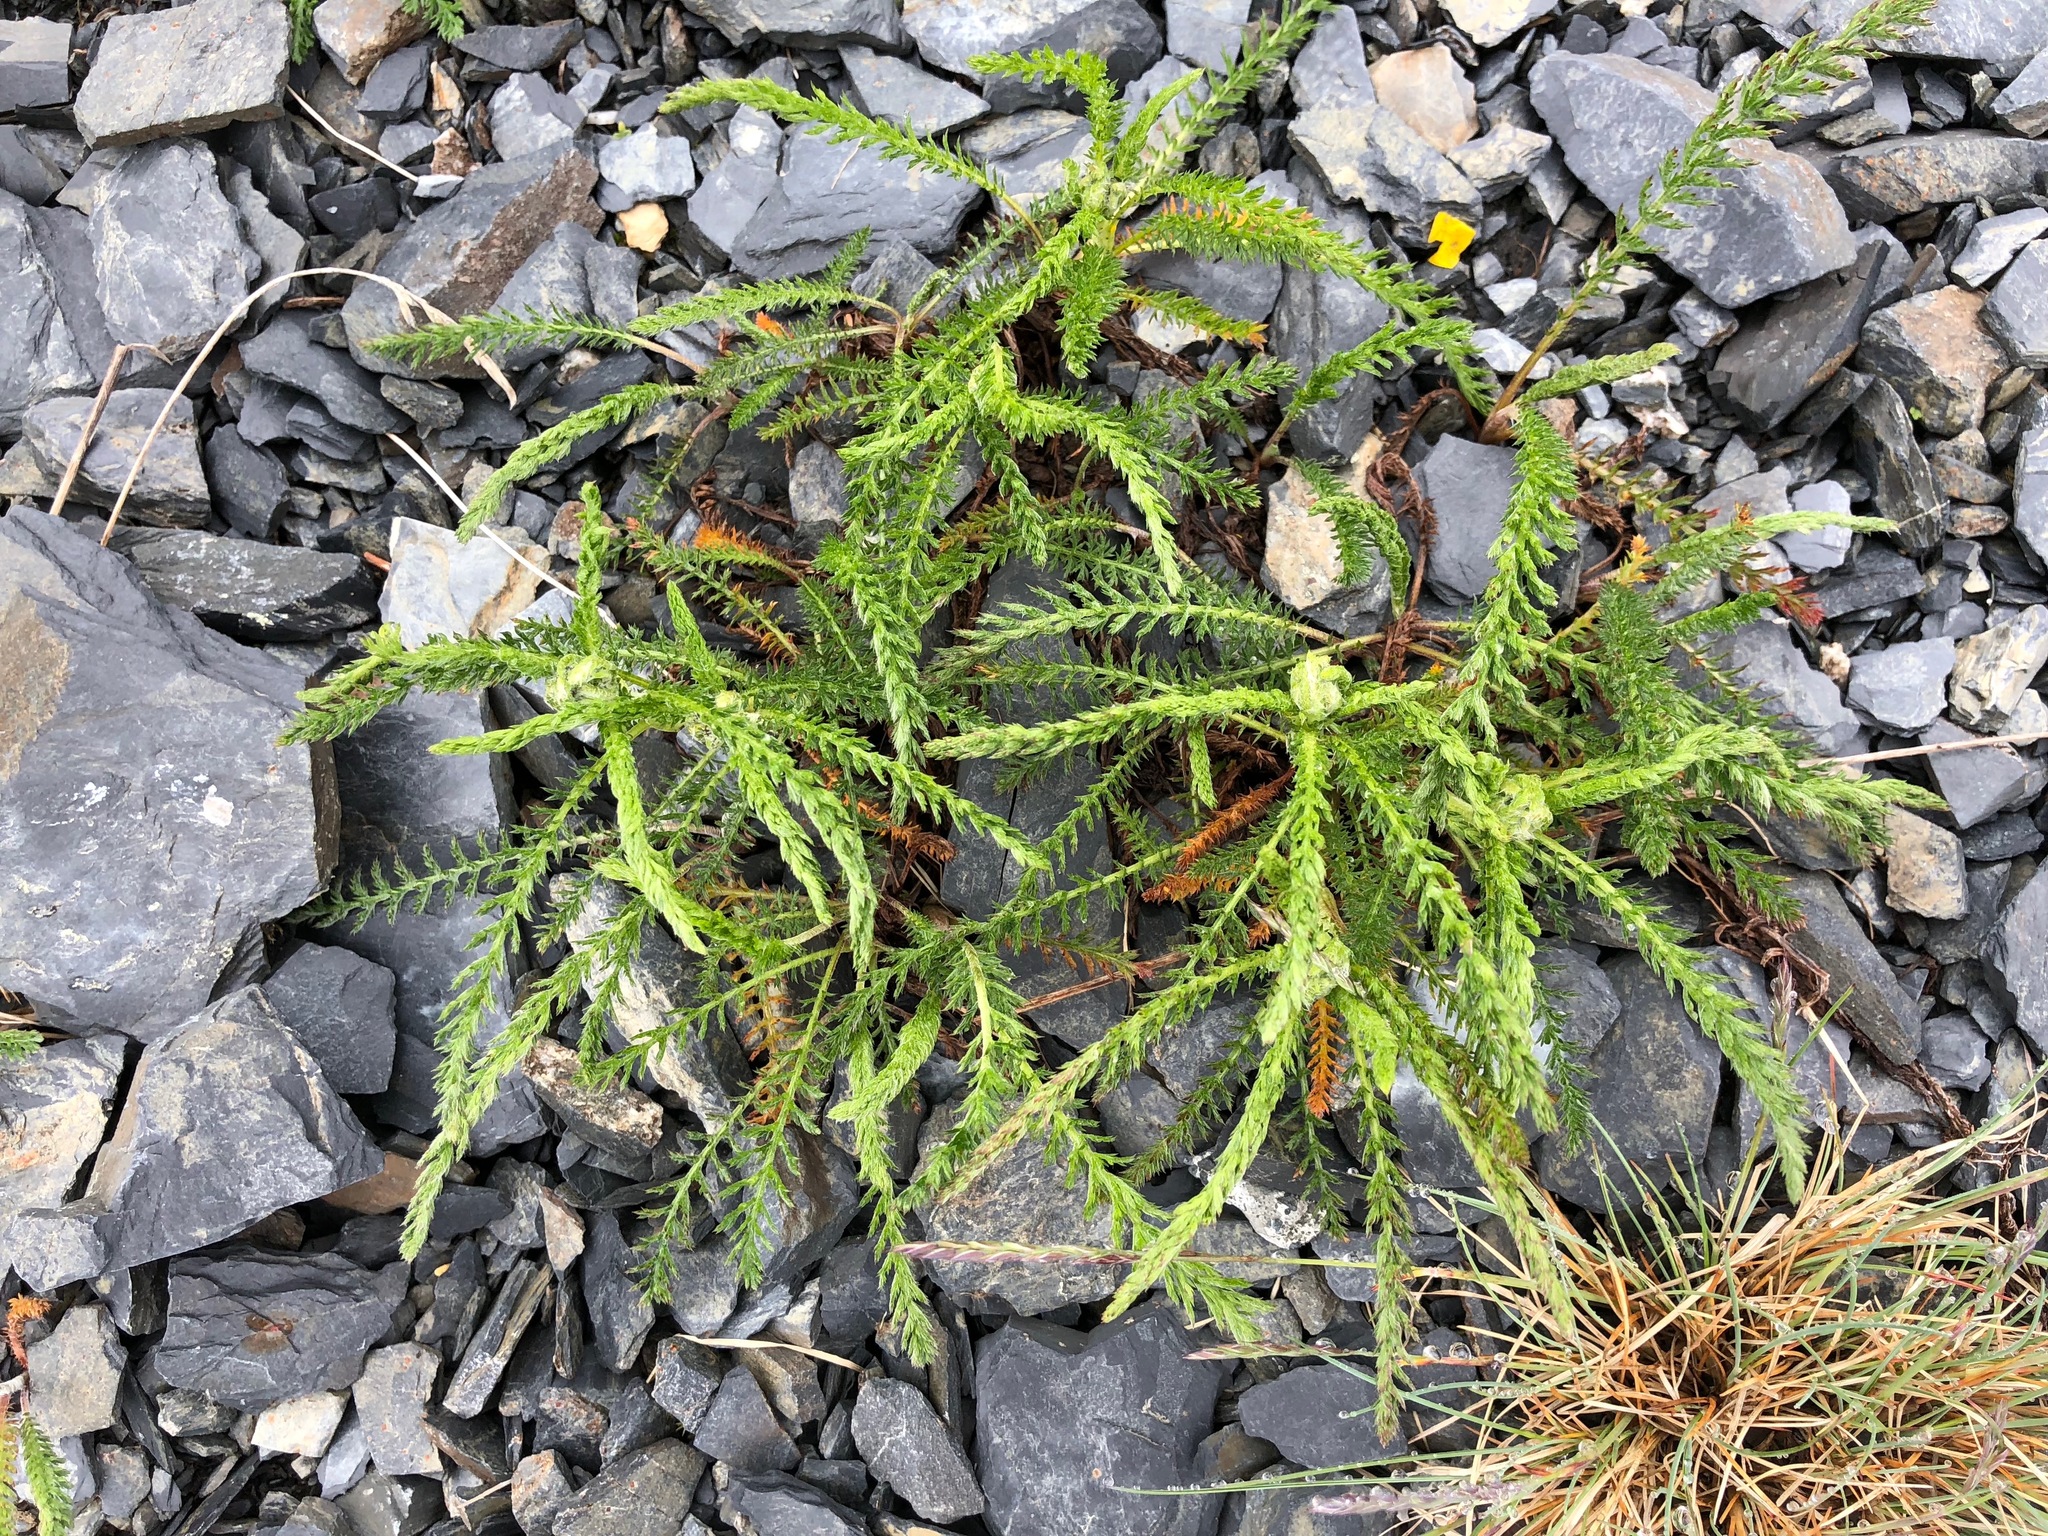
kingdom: Plantae
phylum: Tracheophyta
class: Magnoliopsida
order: Asterales
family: Asteraceae
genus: Achillea
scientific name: Achillea millefolium
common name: Yarrow
